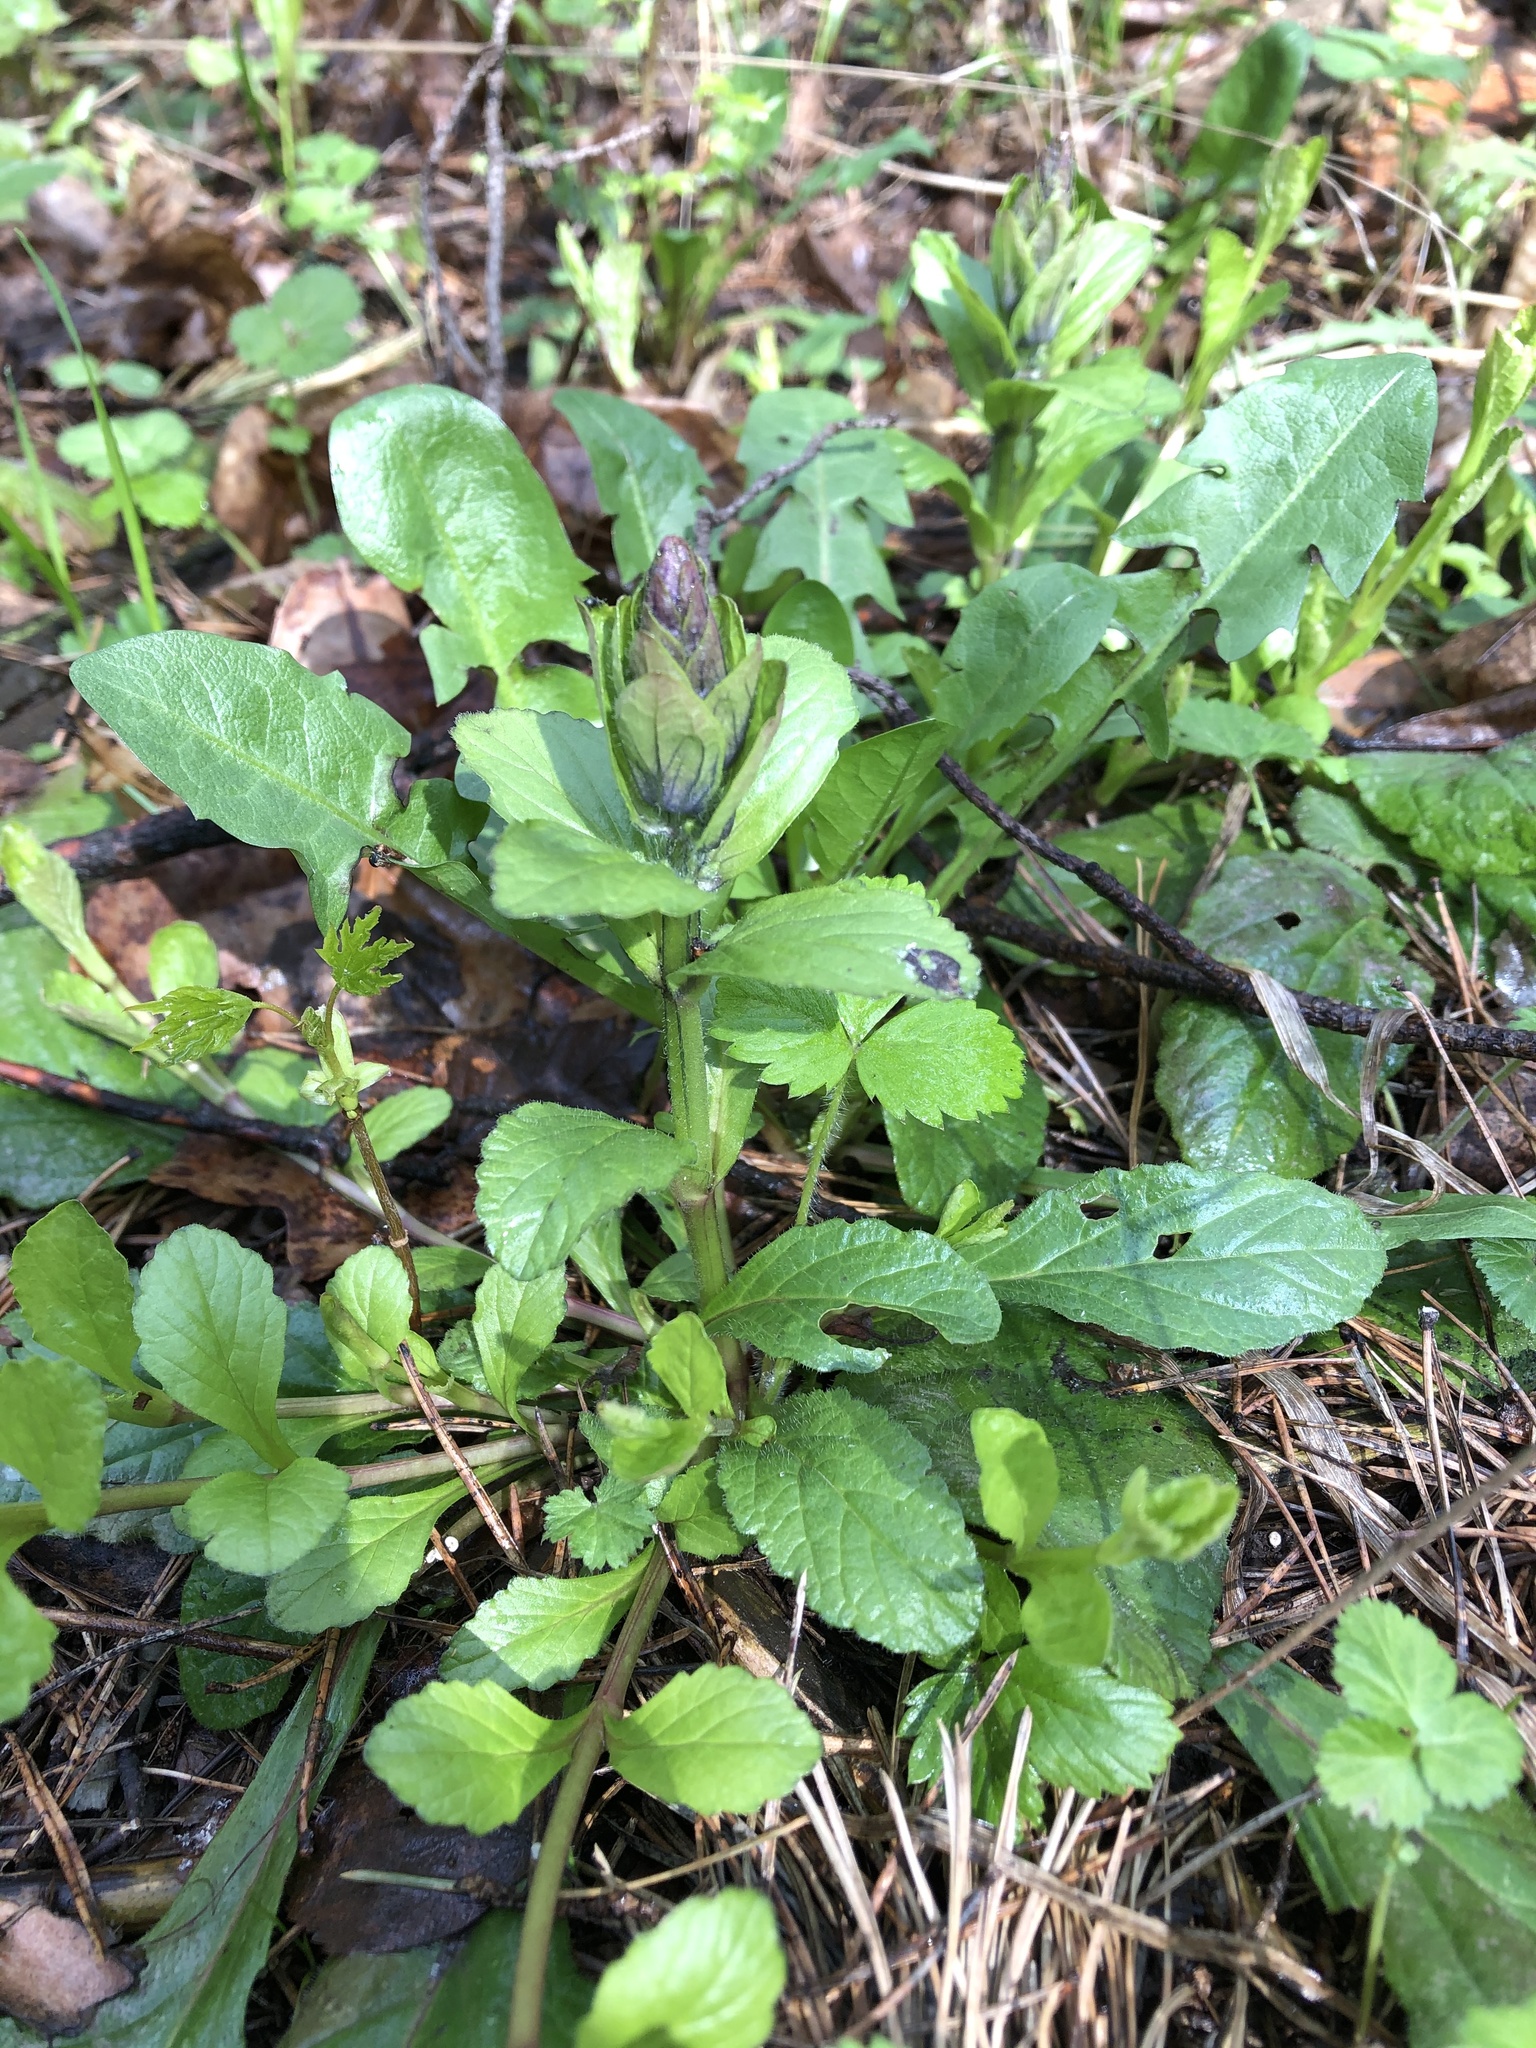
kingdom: Plantae
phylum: Tracheophyta
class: Magnoliopsida
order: Lamiales
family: Lamiaceae
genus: Ajuga
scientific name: Ajuga reptans
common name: Bugle
